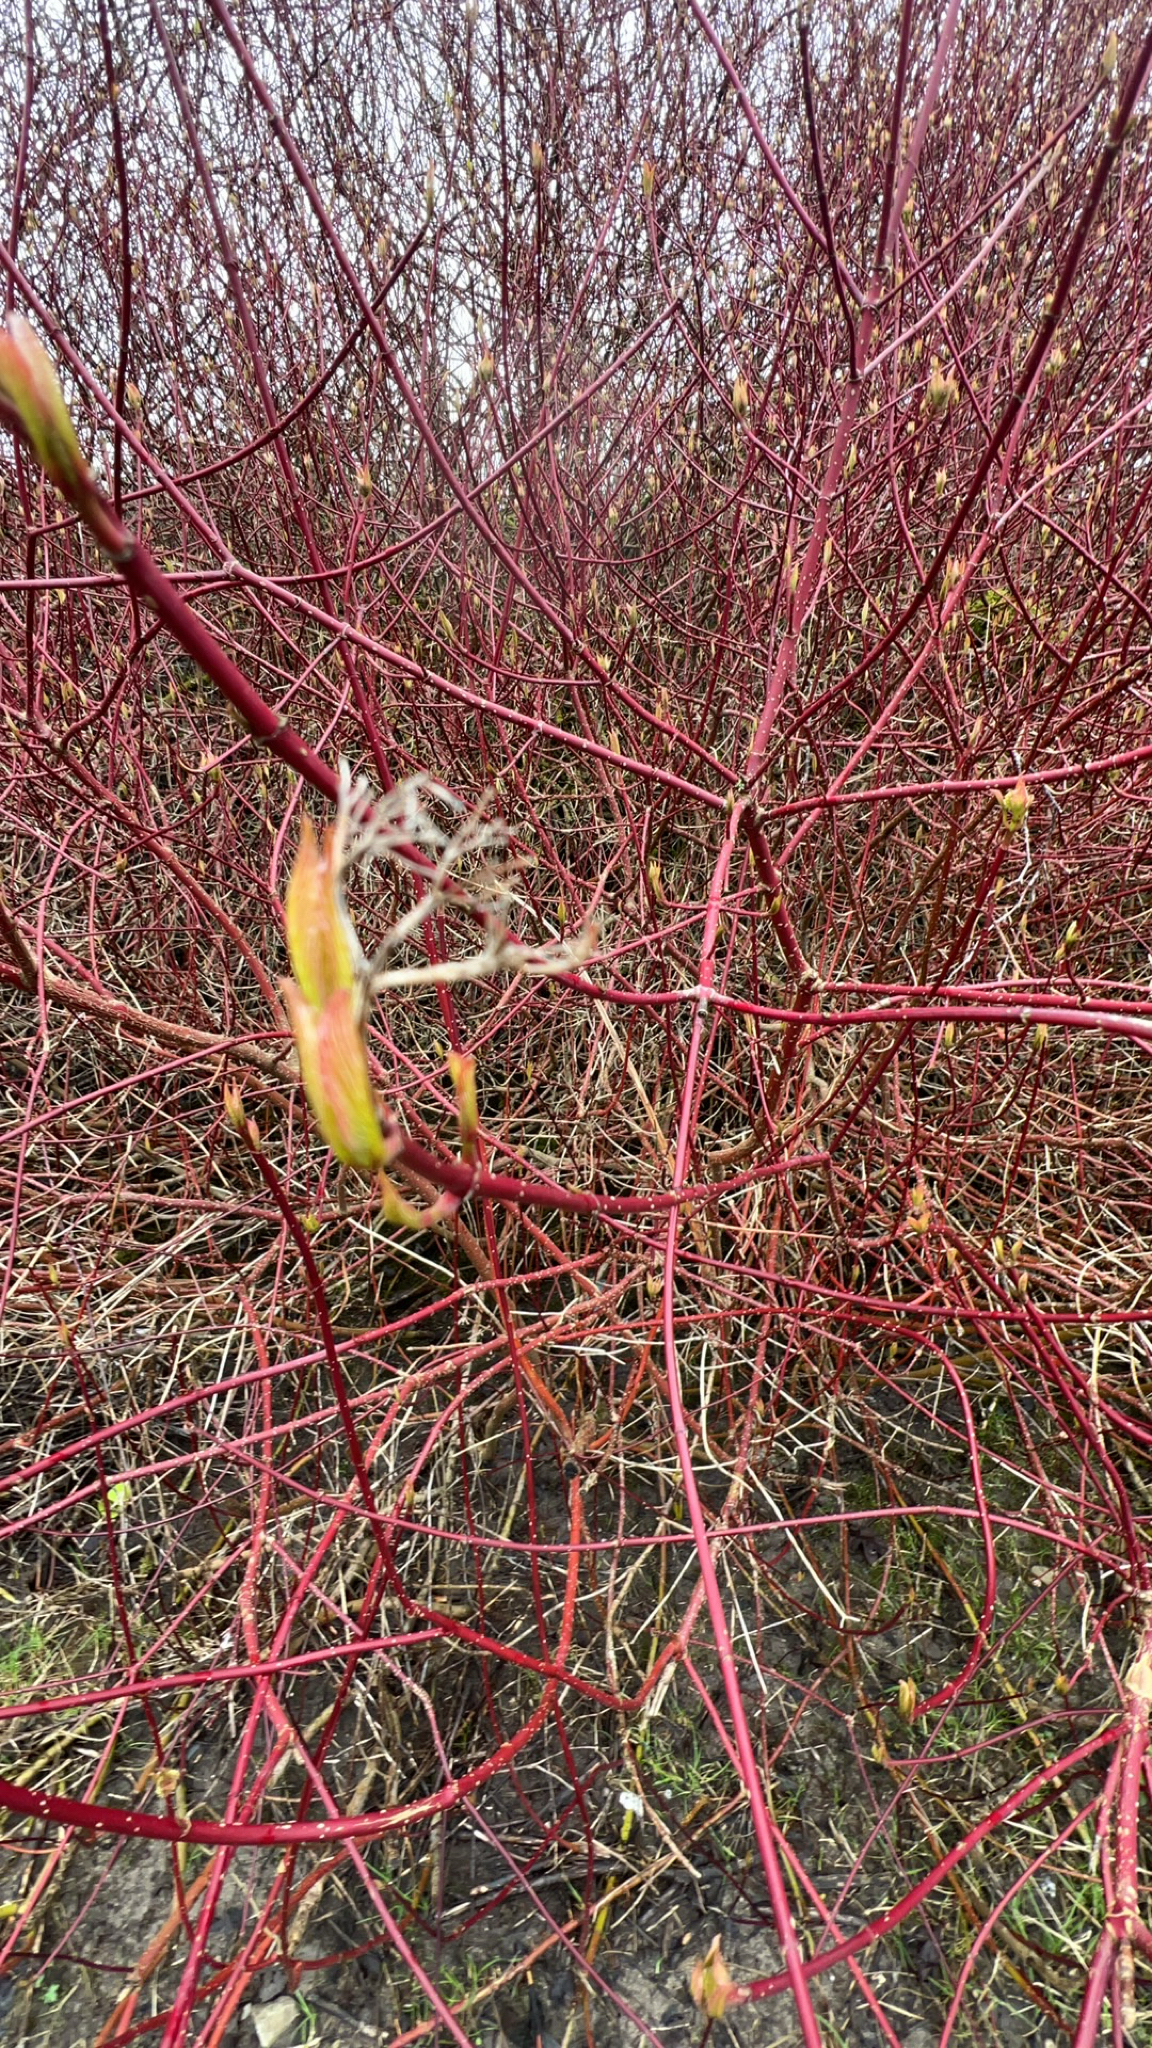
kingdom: Plantae
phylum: Tracheophyta
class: Magnoliopsida
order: Cornales
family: Cornaceae
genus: Cornus
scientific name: Cornus sericea
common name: Red-osier dogwood
